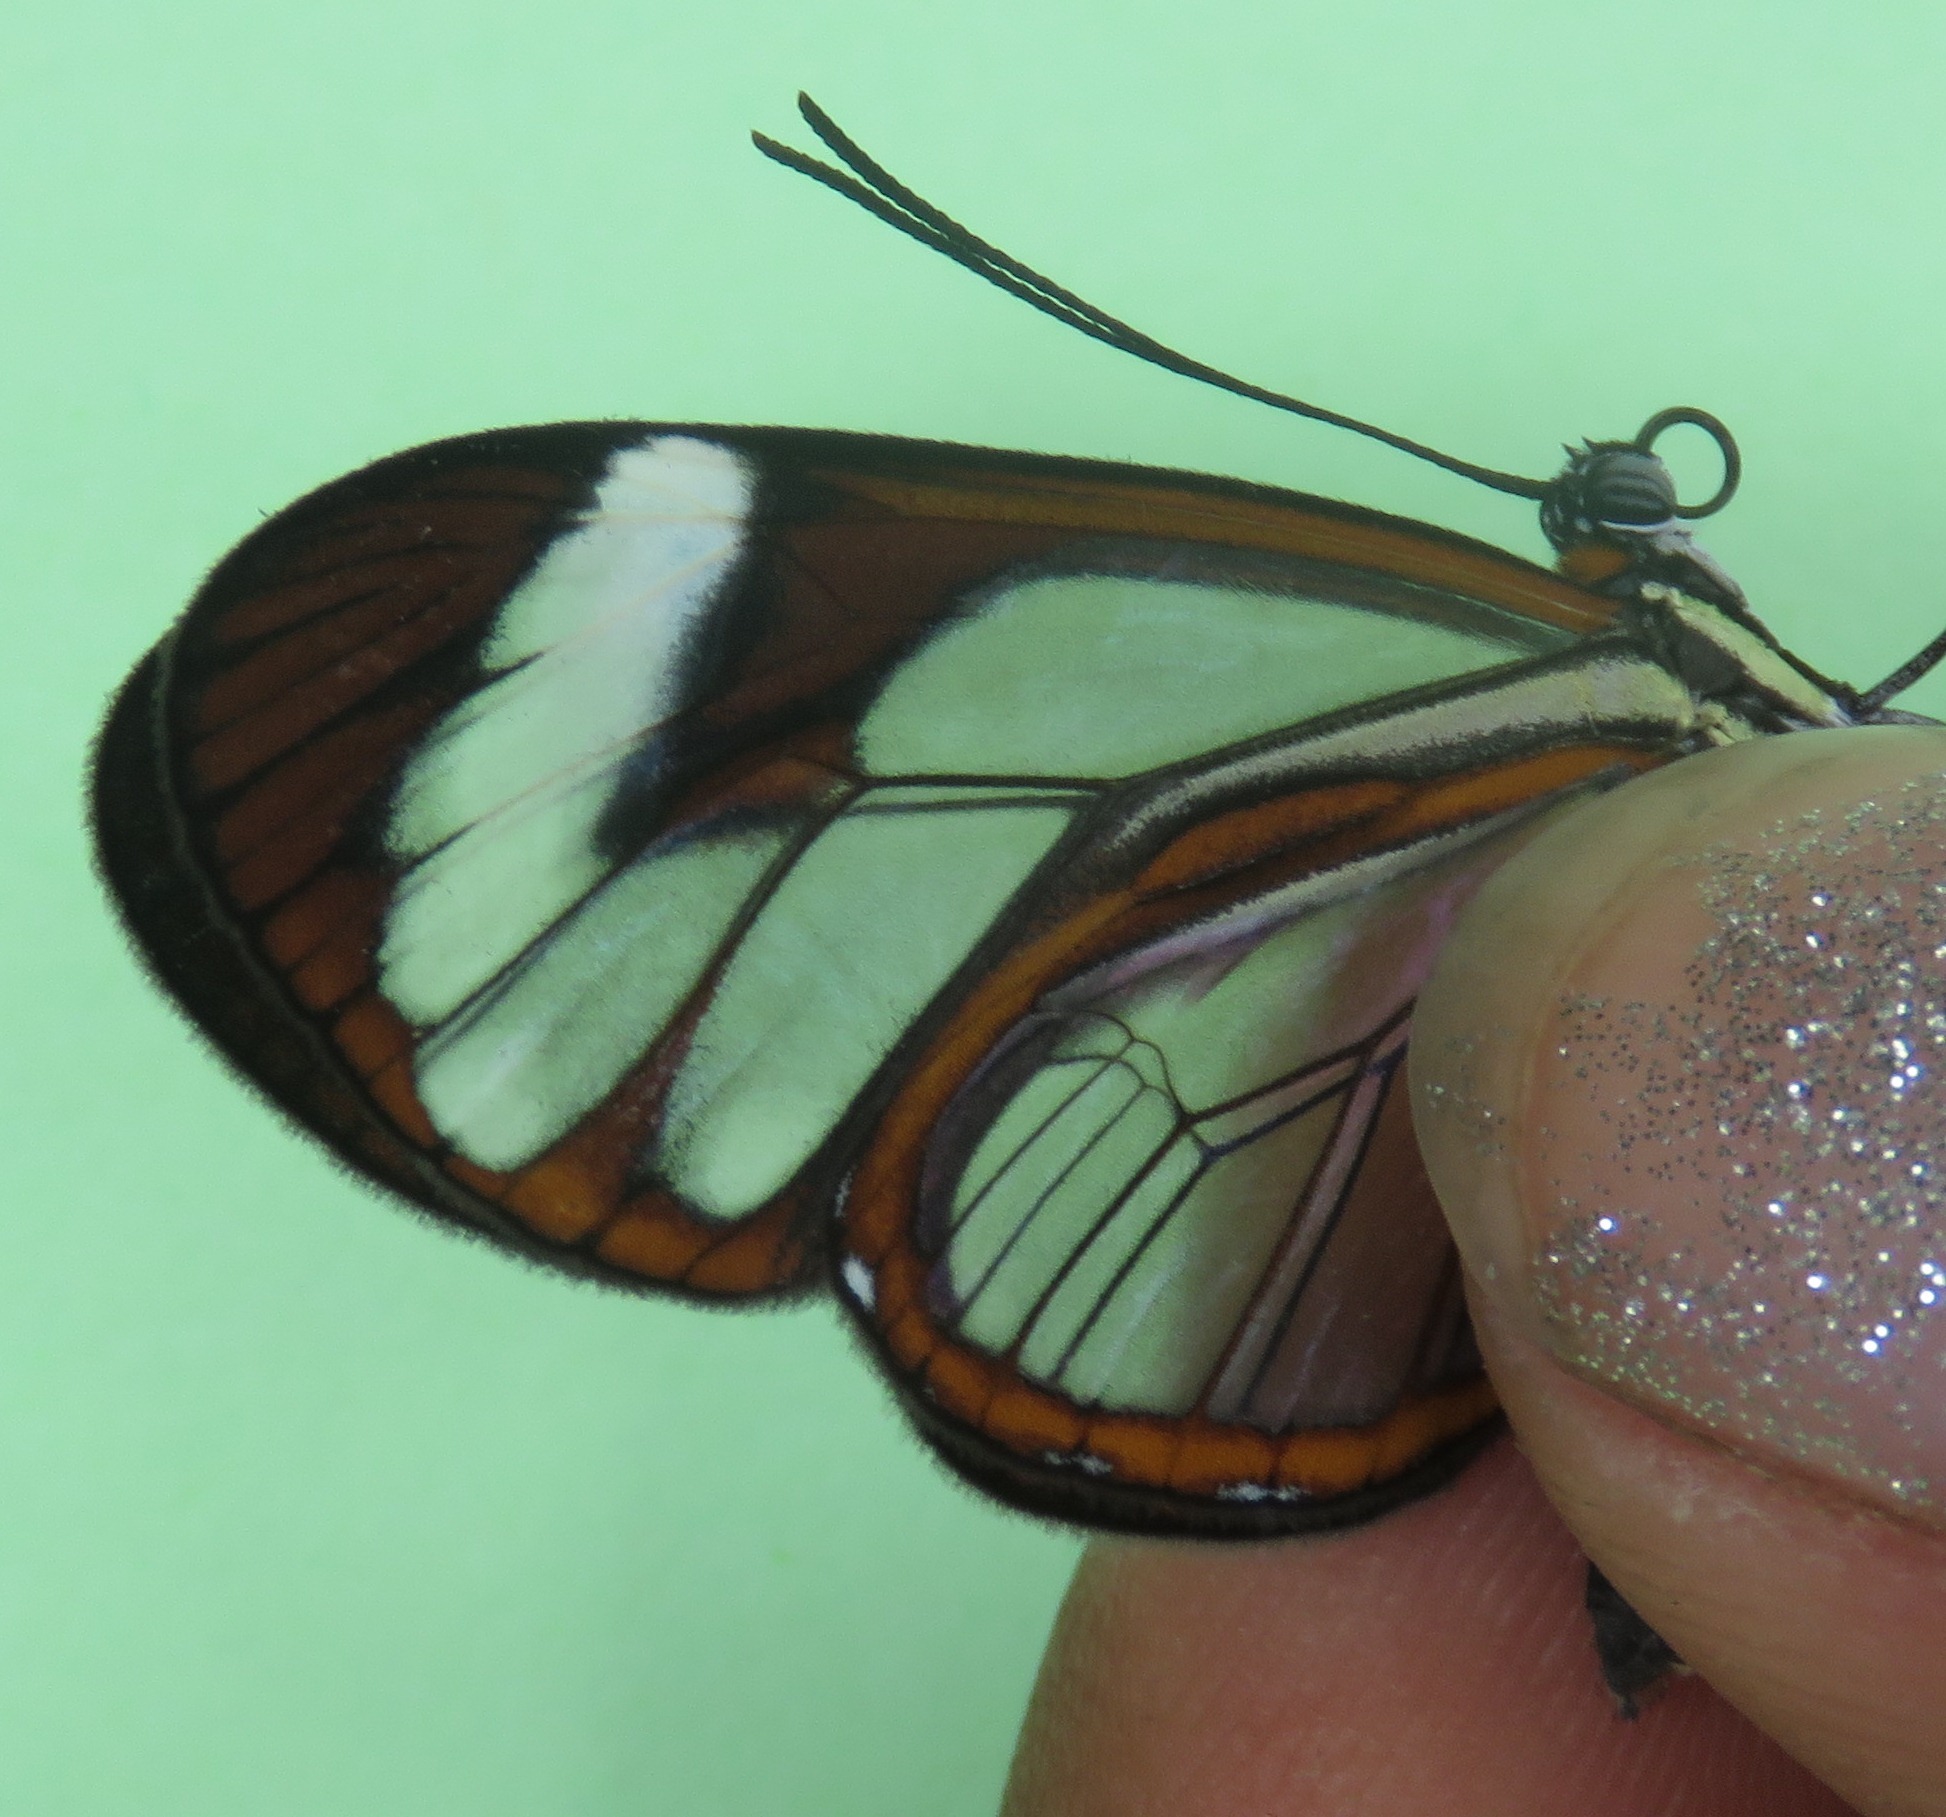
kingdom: Animalia
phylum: Arthropoda
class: Insecta
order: Lepidoptera
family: Nymphalidae
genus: Ithomia
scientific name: Ithomia patilla
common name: Patilla clearwing
